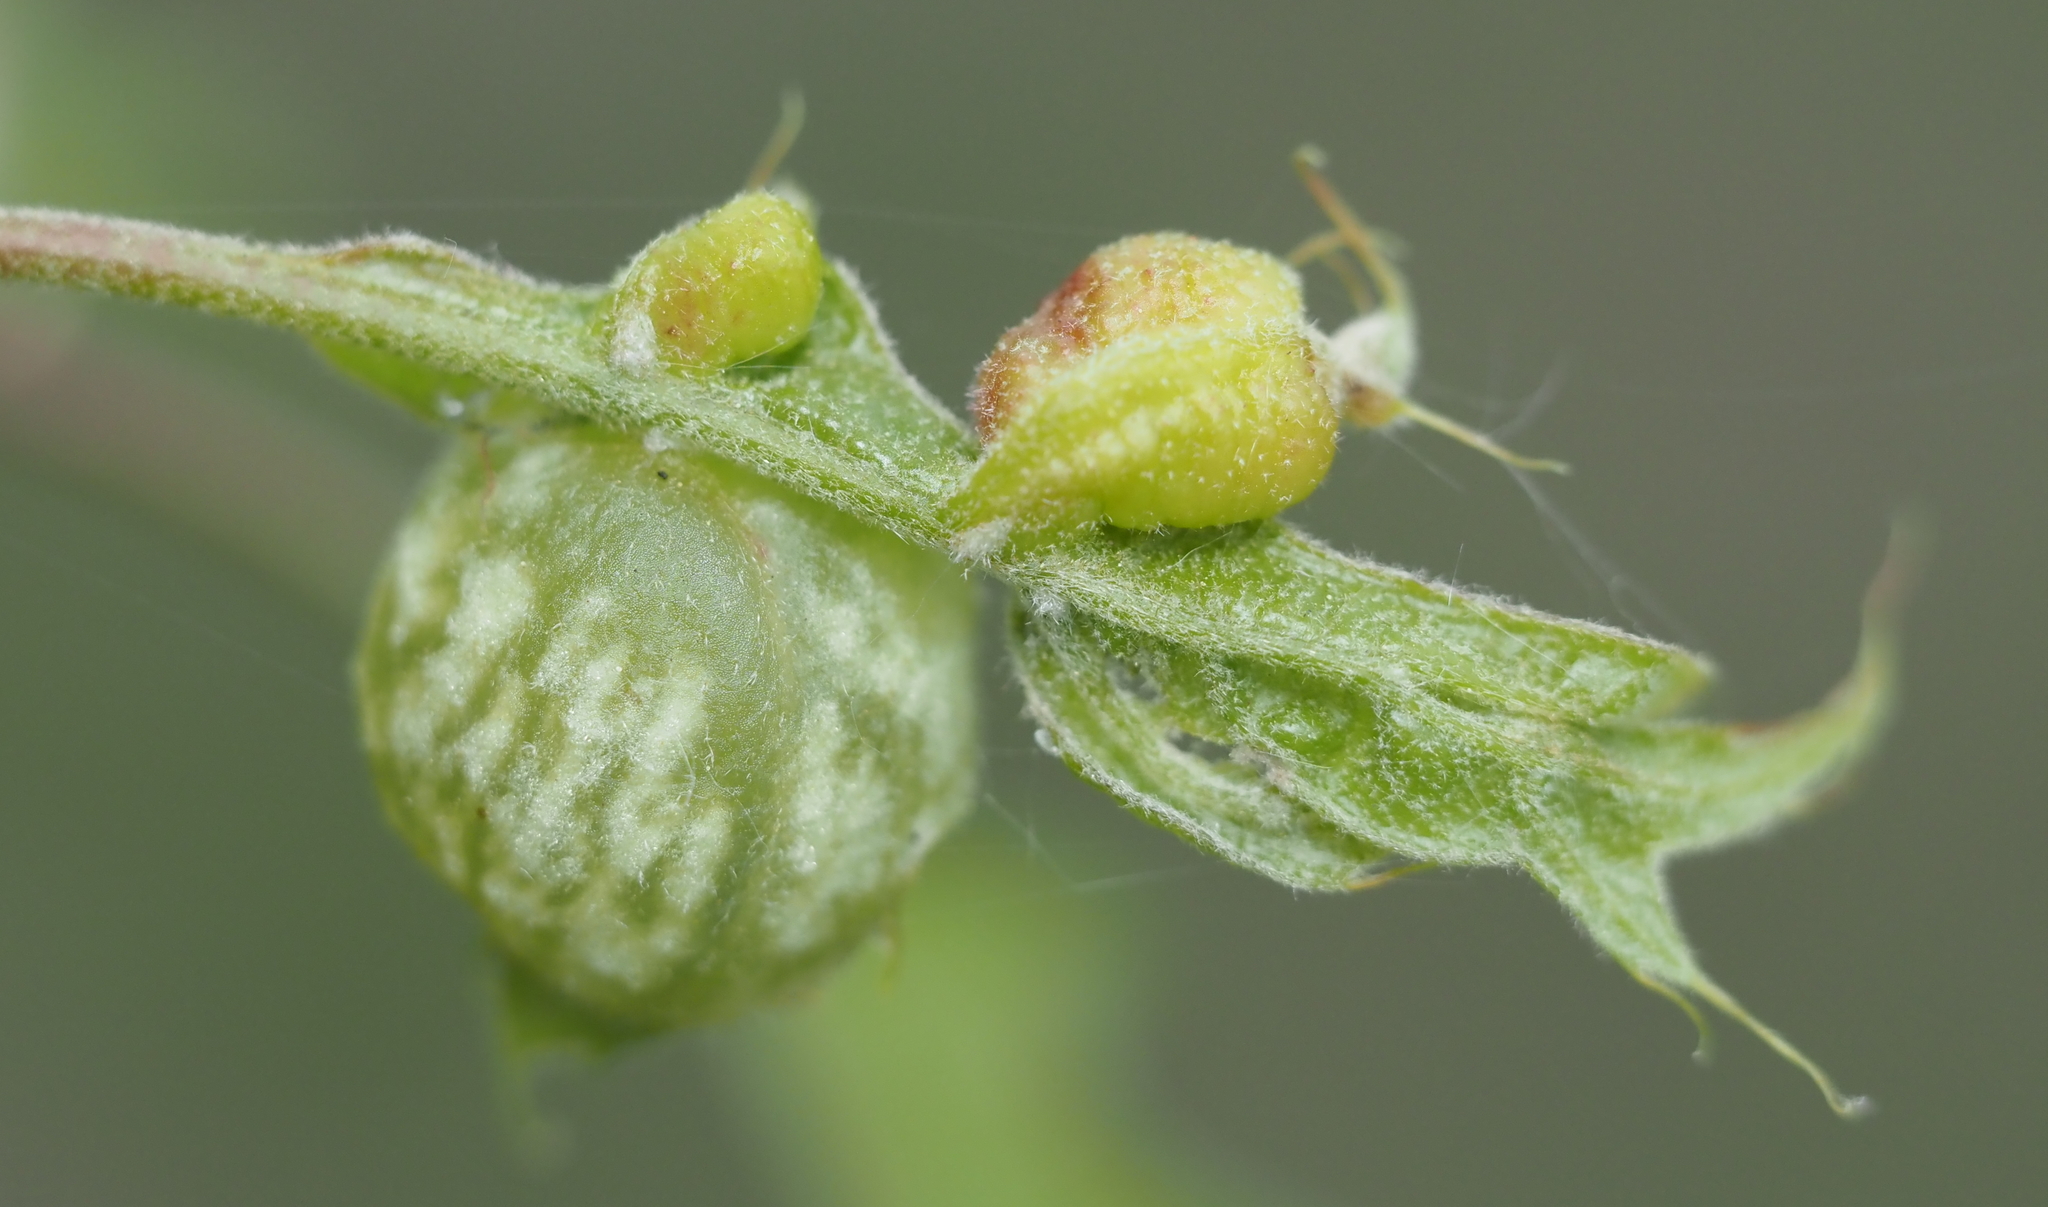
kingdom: Animalia
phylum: Arthropoda
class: Insecta
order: Hymenoptera
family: Cynipidae
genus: Dryocosmus
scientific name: Dryocosmus quercuspalustris
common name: Succulent oak gall wasp
